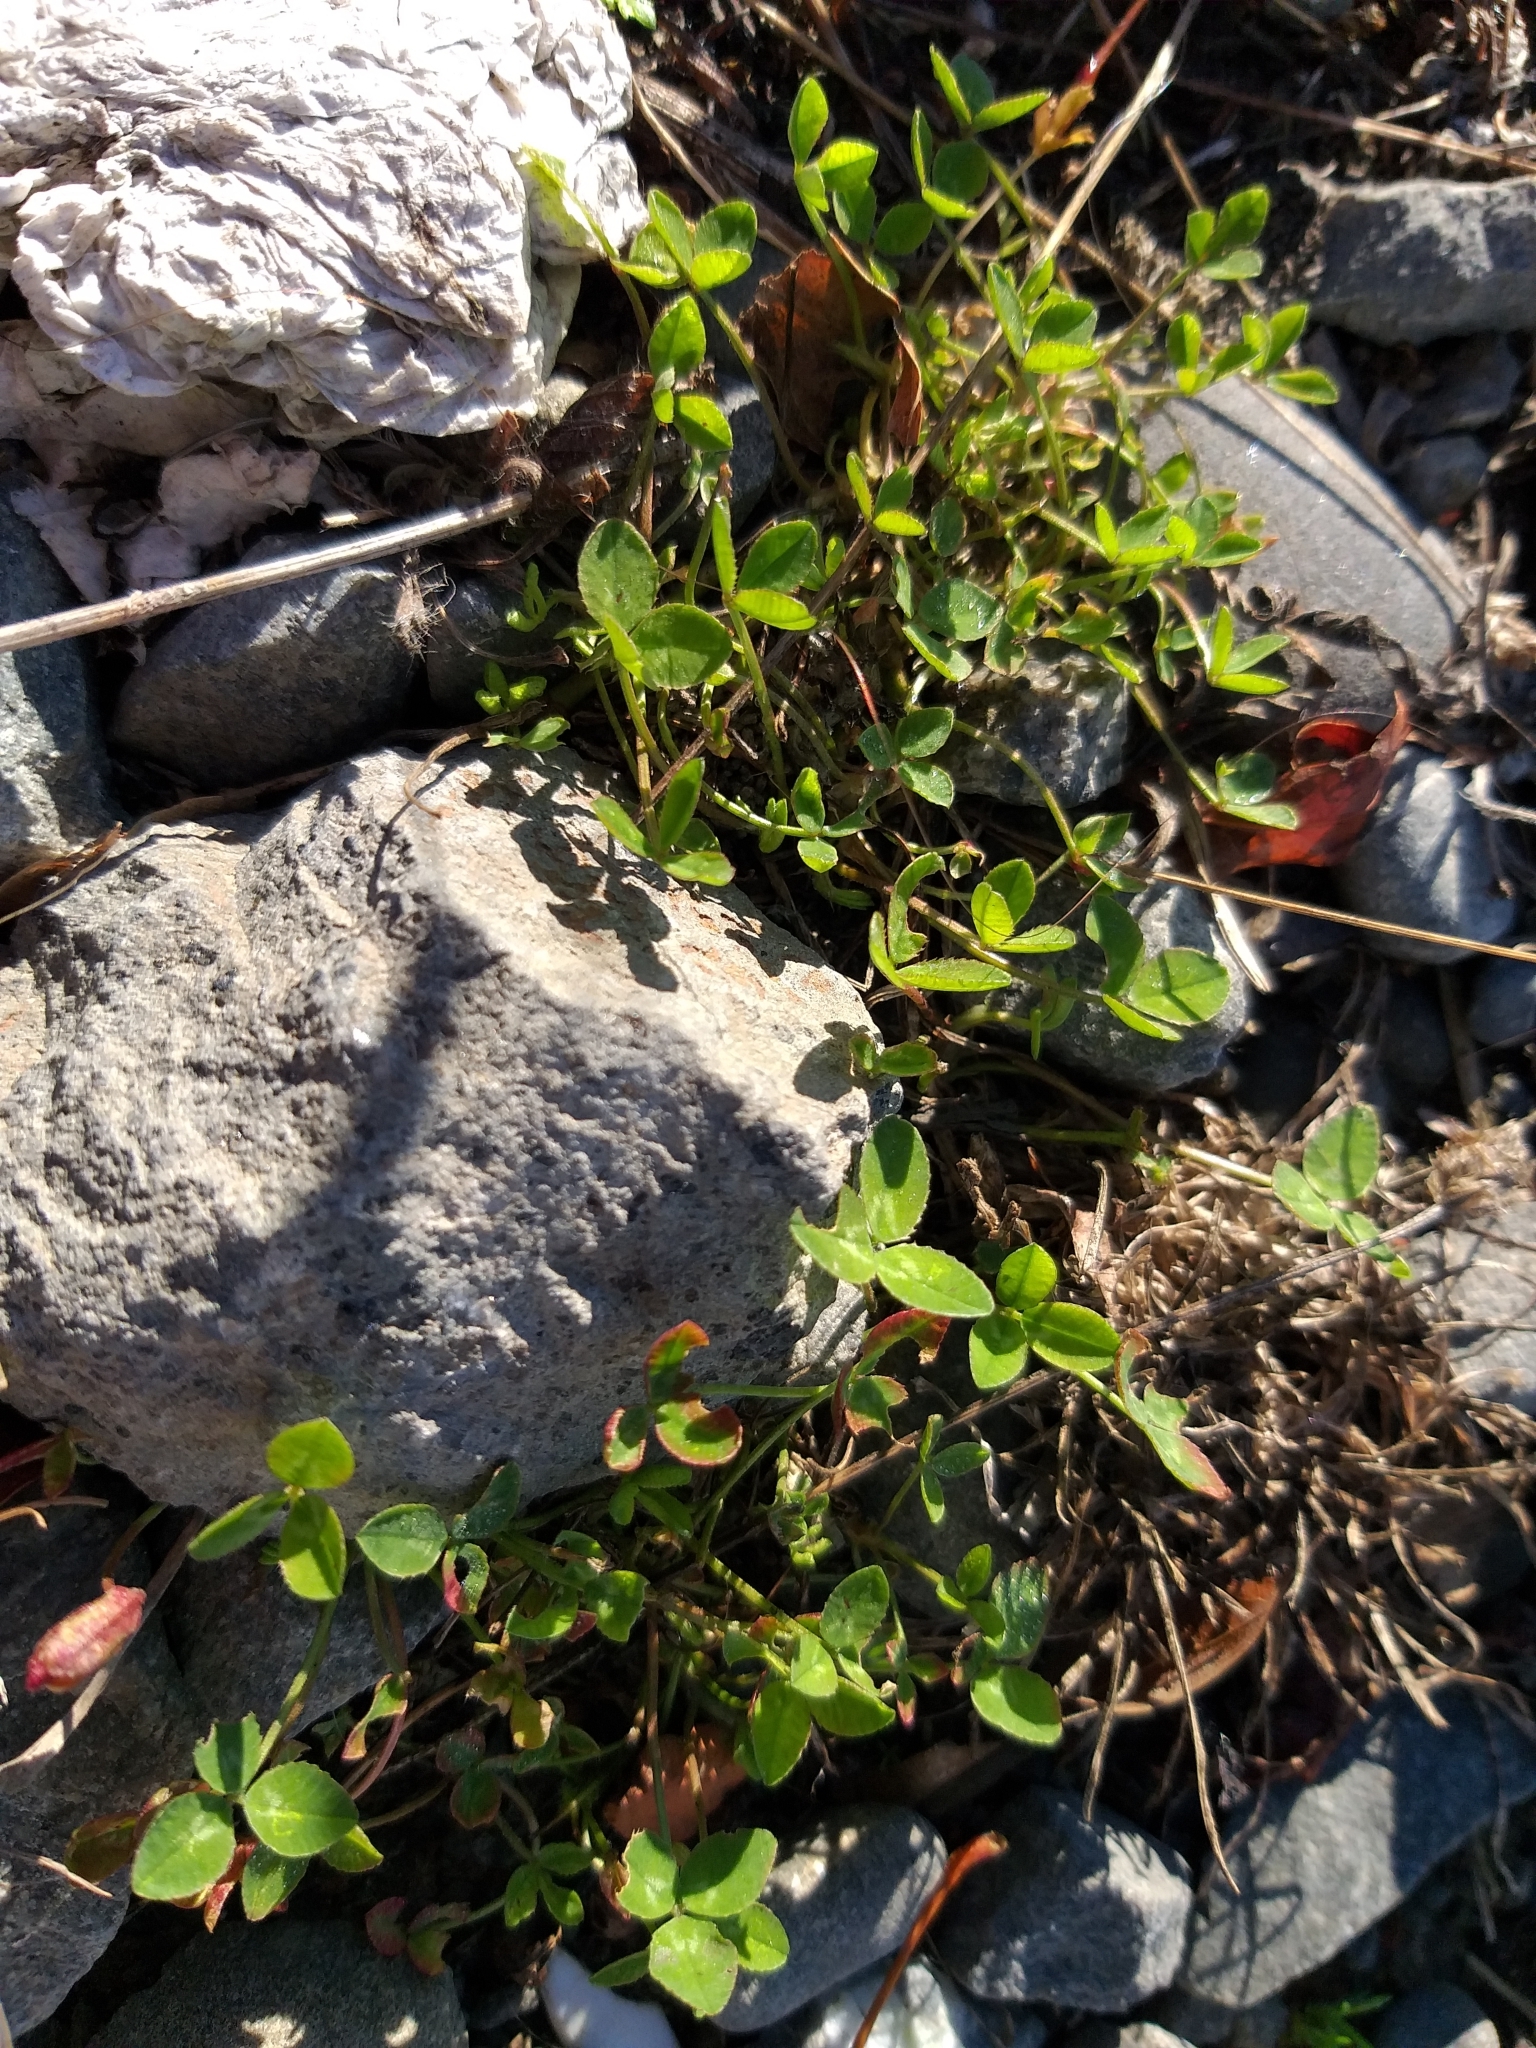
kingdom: Plantae
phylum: Tracheophyta
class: Magnoliopsida
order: Fabales
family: Fabaceae
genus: Trifolium
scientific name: Trifolium repens
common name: White clover
